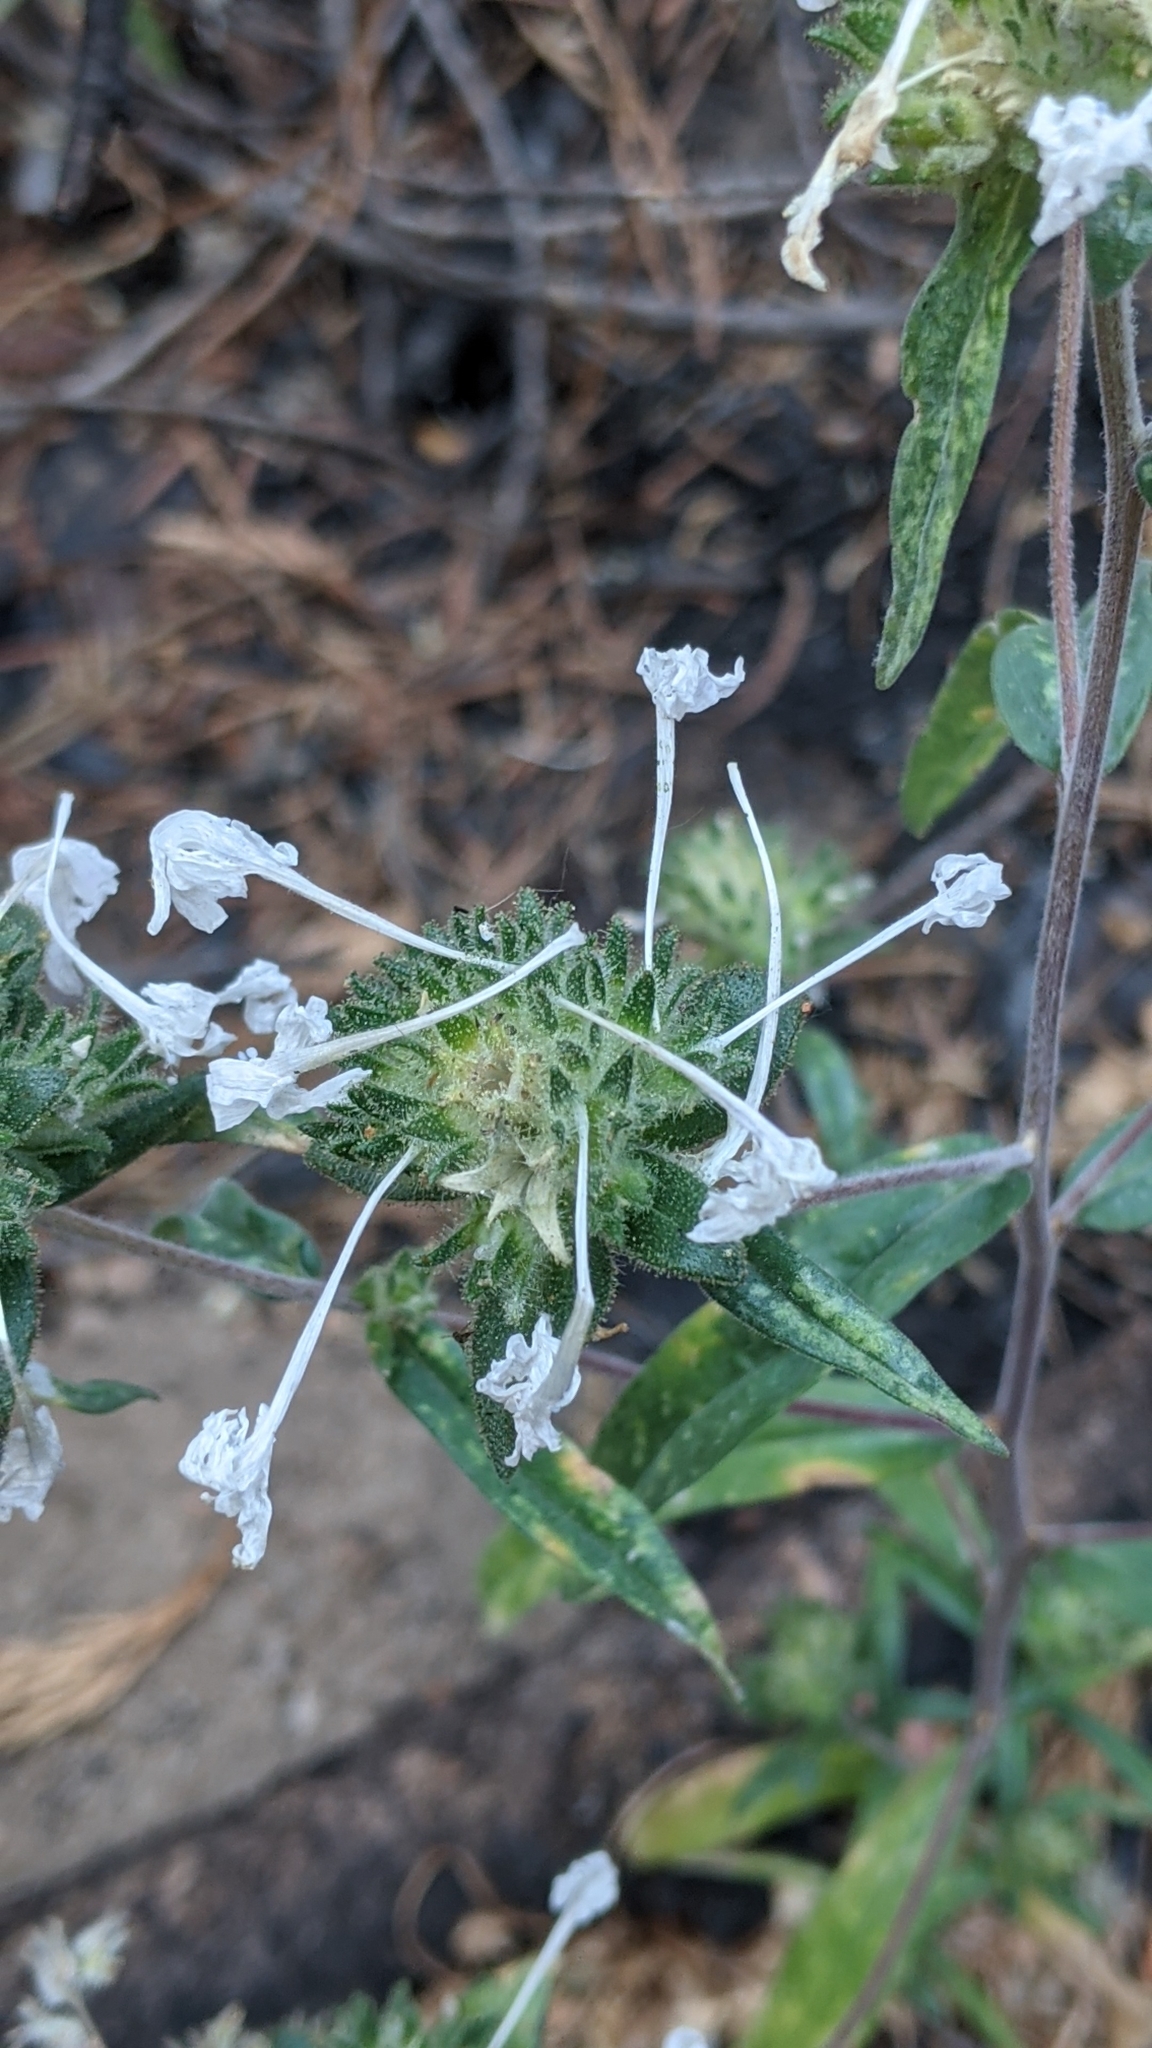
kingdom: Plantae
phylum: Tracheophyta
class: Magnoliopsida
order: Ericales
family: Polemoniaceae
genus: Collomia
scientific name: Collomia grandiflora
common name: California strawflower
